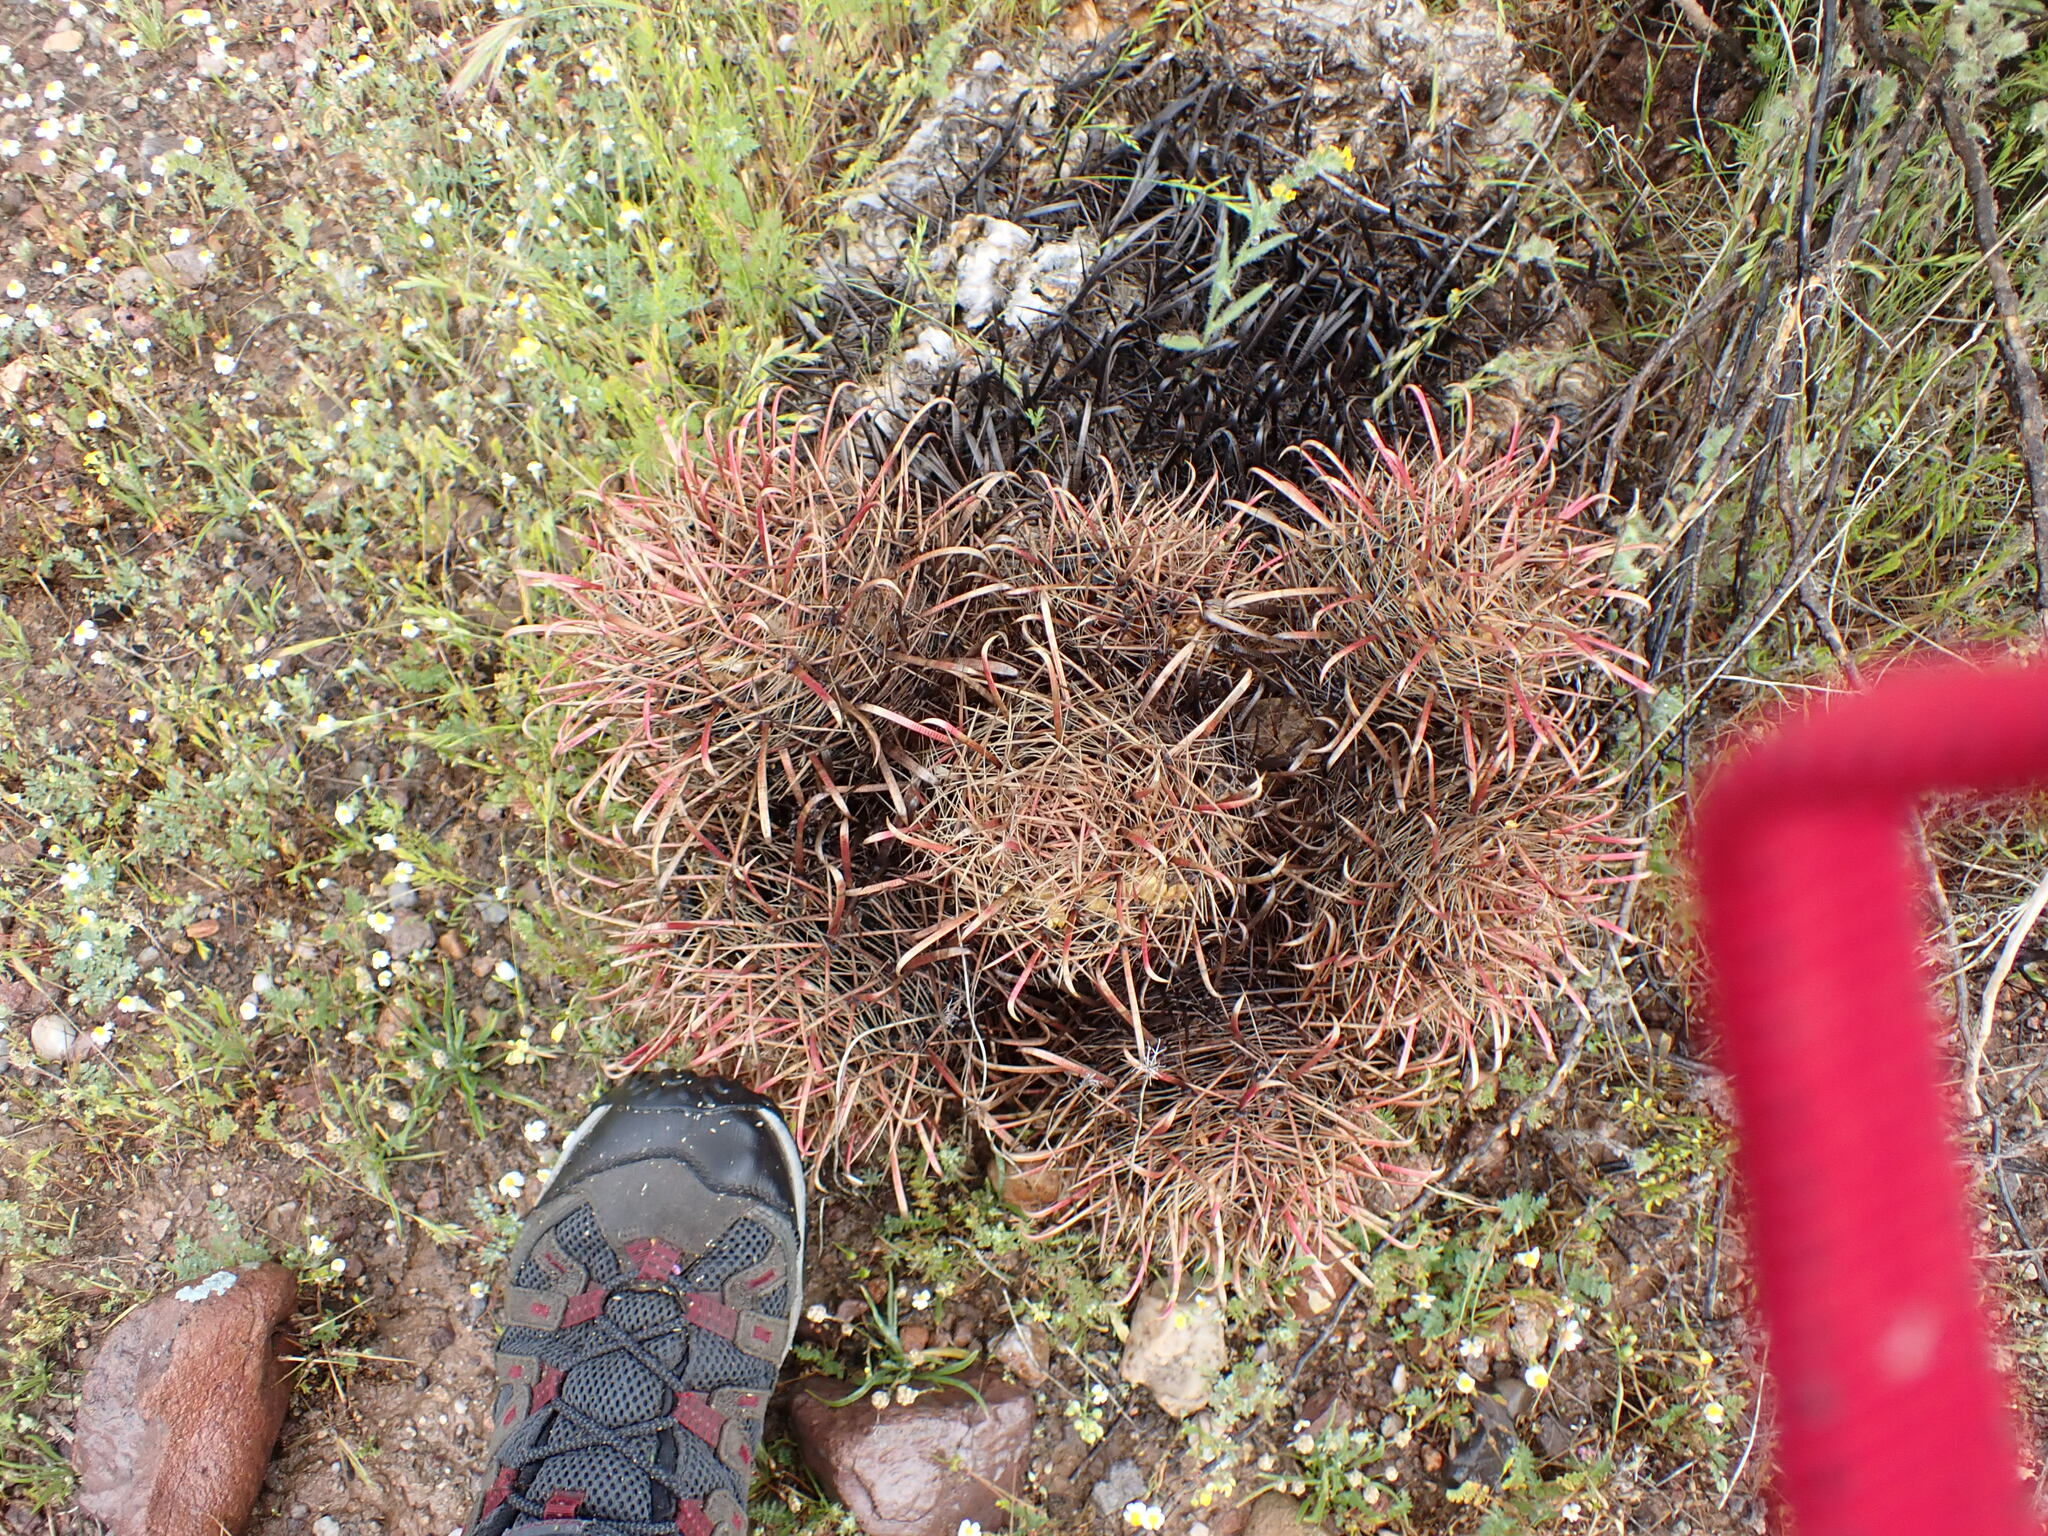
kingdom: Plantae
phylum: Tracheophyta
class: Magnoliopsida
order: Caryophyllales
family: Cactaceae
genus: Ferocactus
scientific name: Ferocactus wislizeni
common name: Candy barrel cactus
